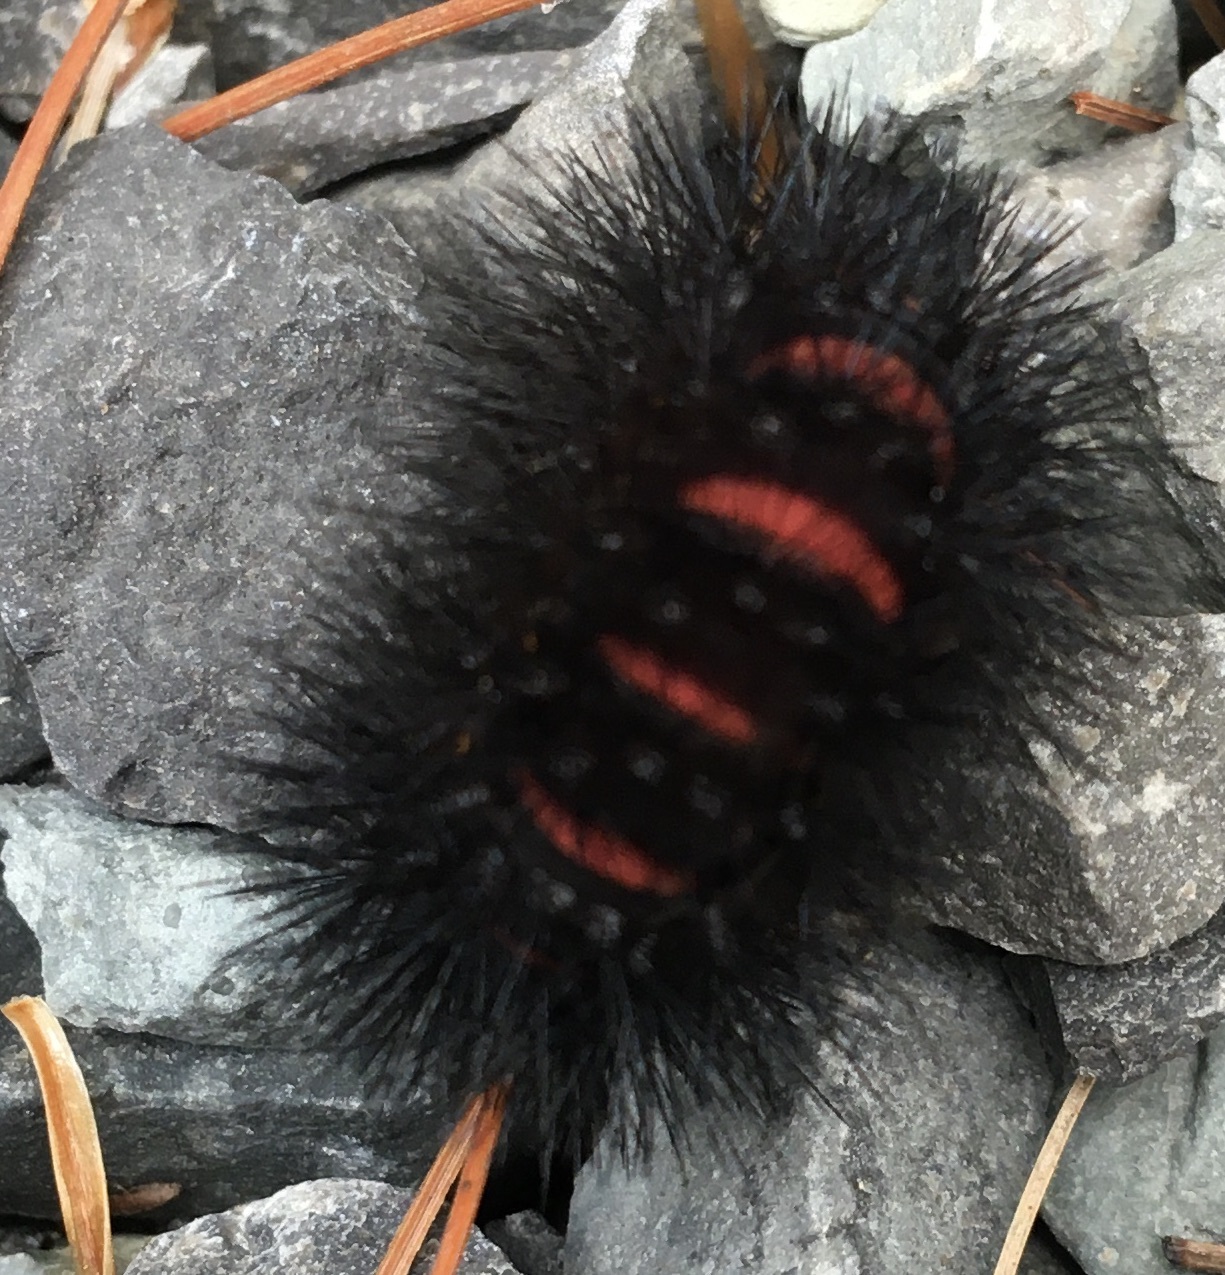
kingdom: Animalia
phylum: Arthropoda
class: Insecta
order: Lepidoptera
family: Erebidae
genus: Hypercompe
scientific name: Hypercompe scribonia
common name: Giant leopard moth
